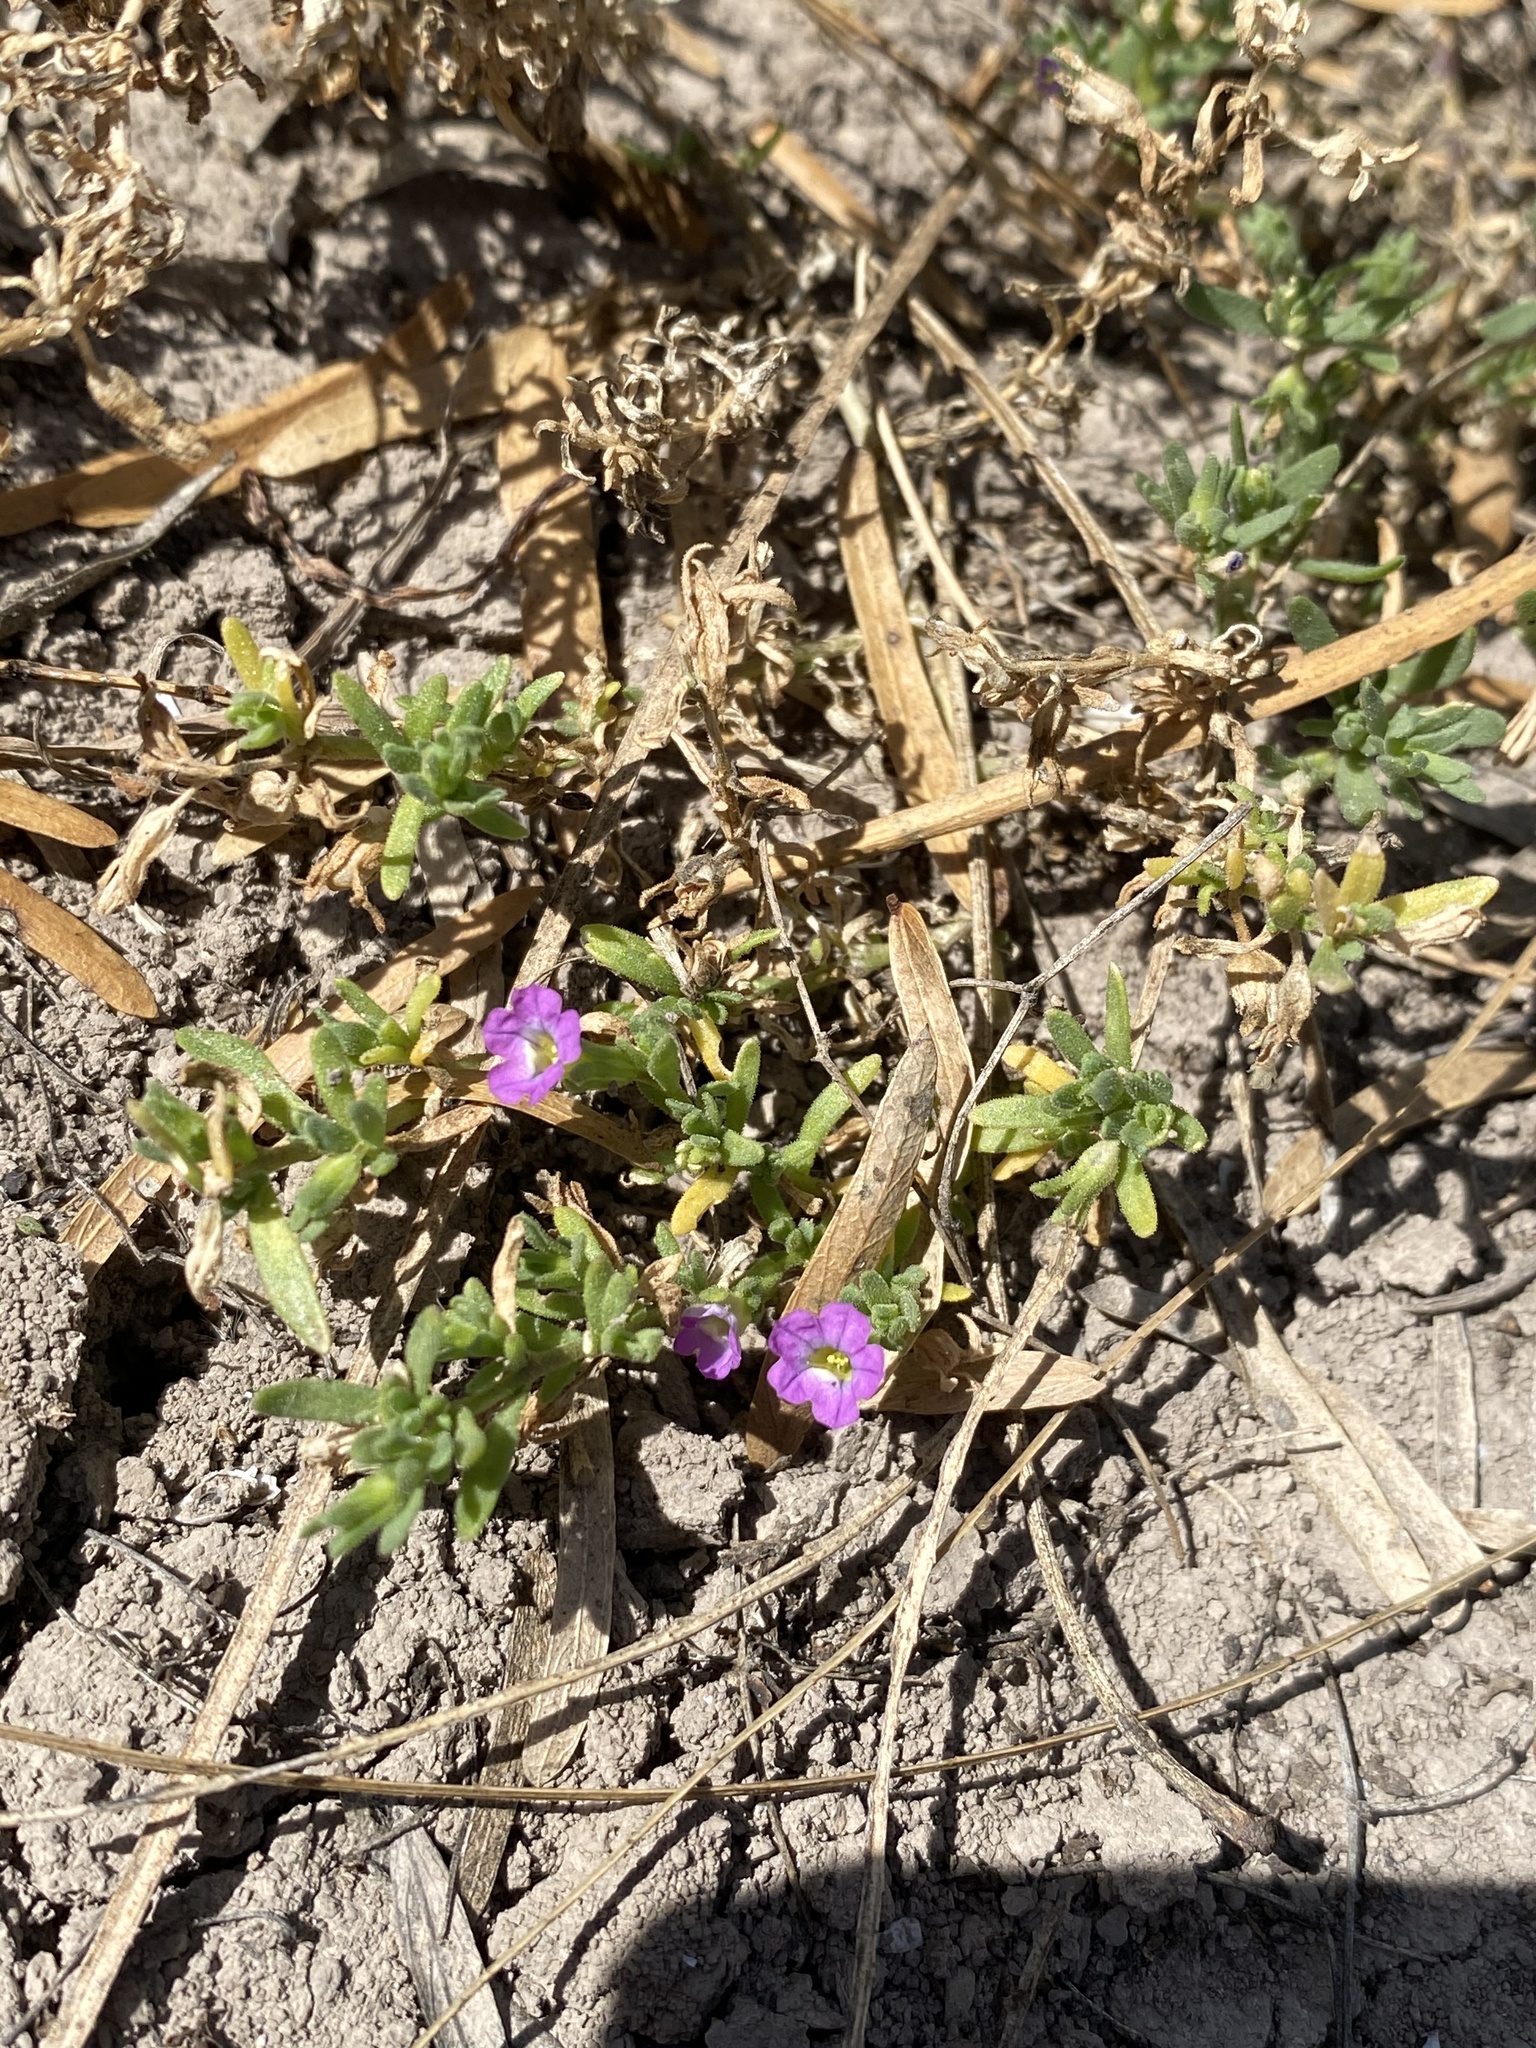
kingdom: Plantae
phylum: Tracheophyta
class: Magnoliopsida
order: Solanales
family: Solanaceae
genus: Calibrachoa
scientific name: Calibrachoa parviflora
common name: Seaside petunia
